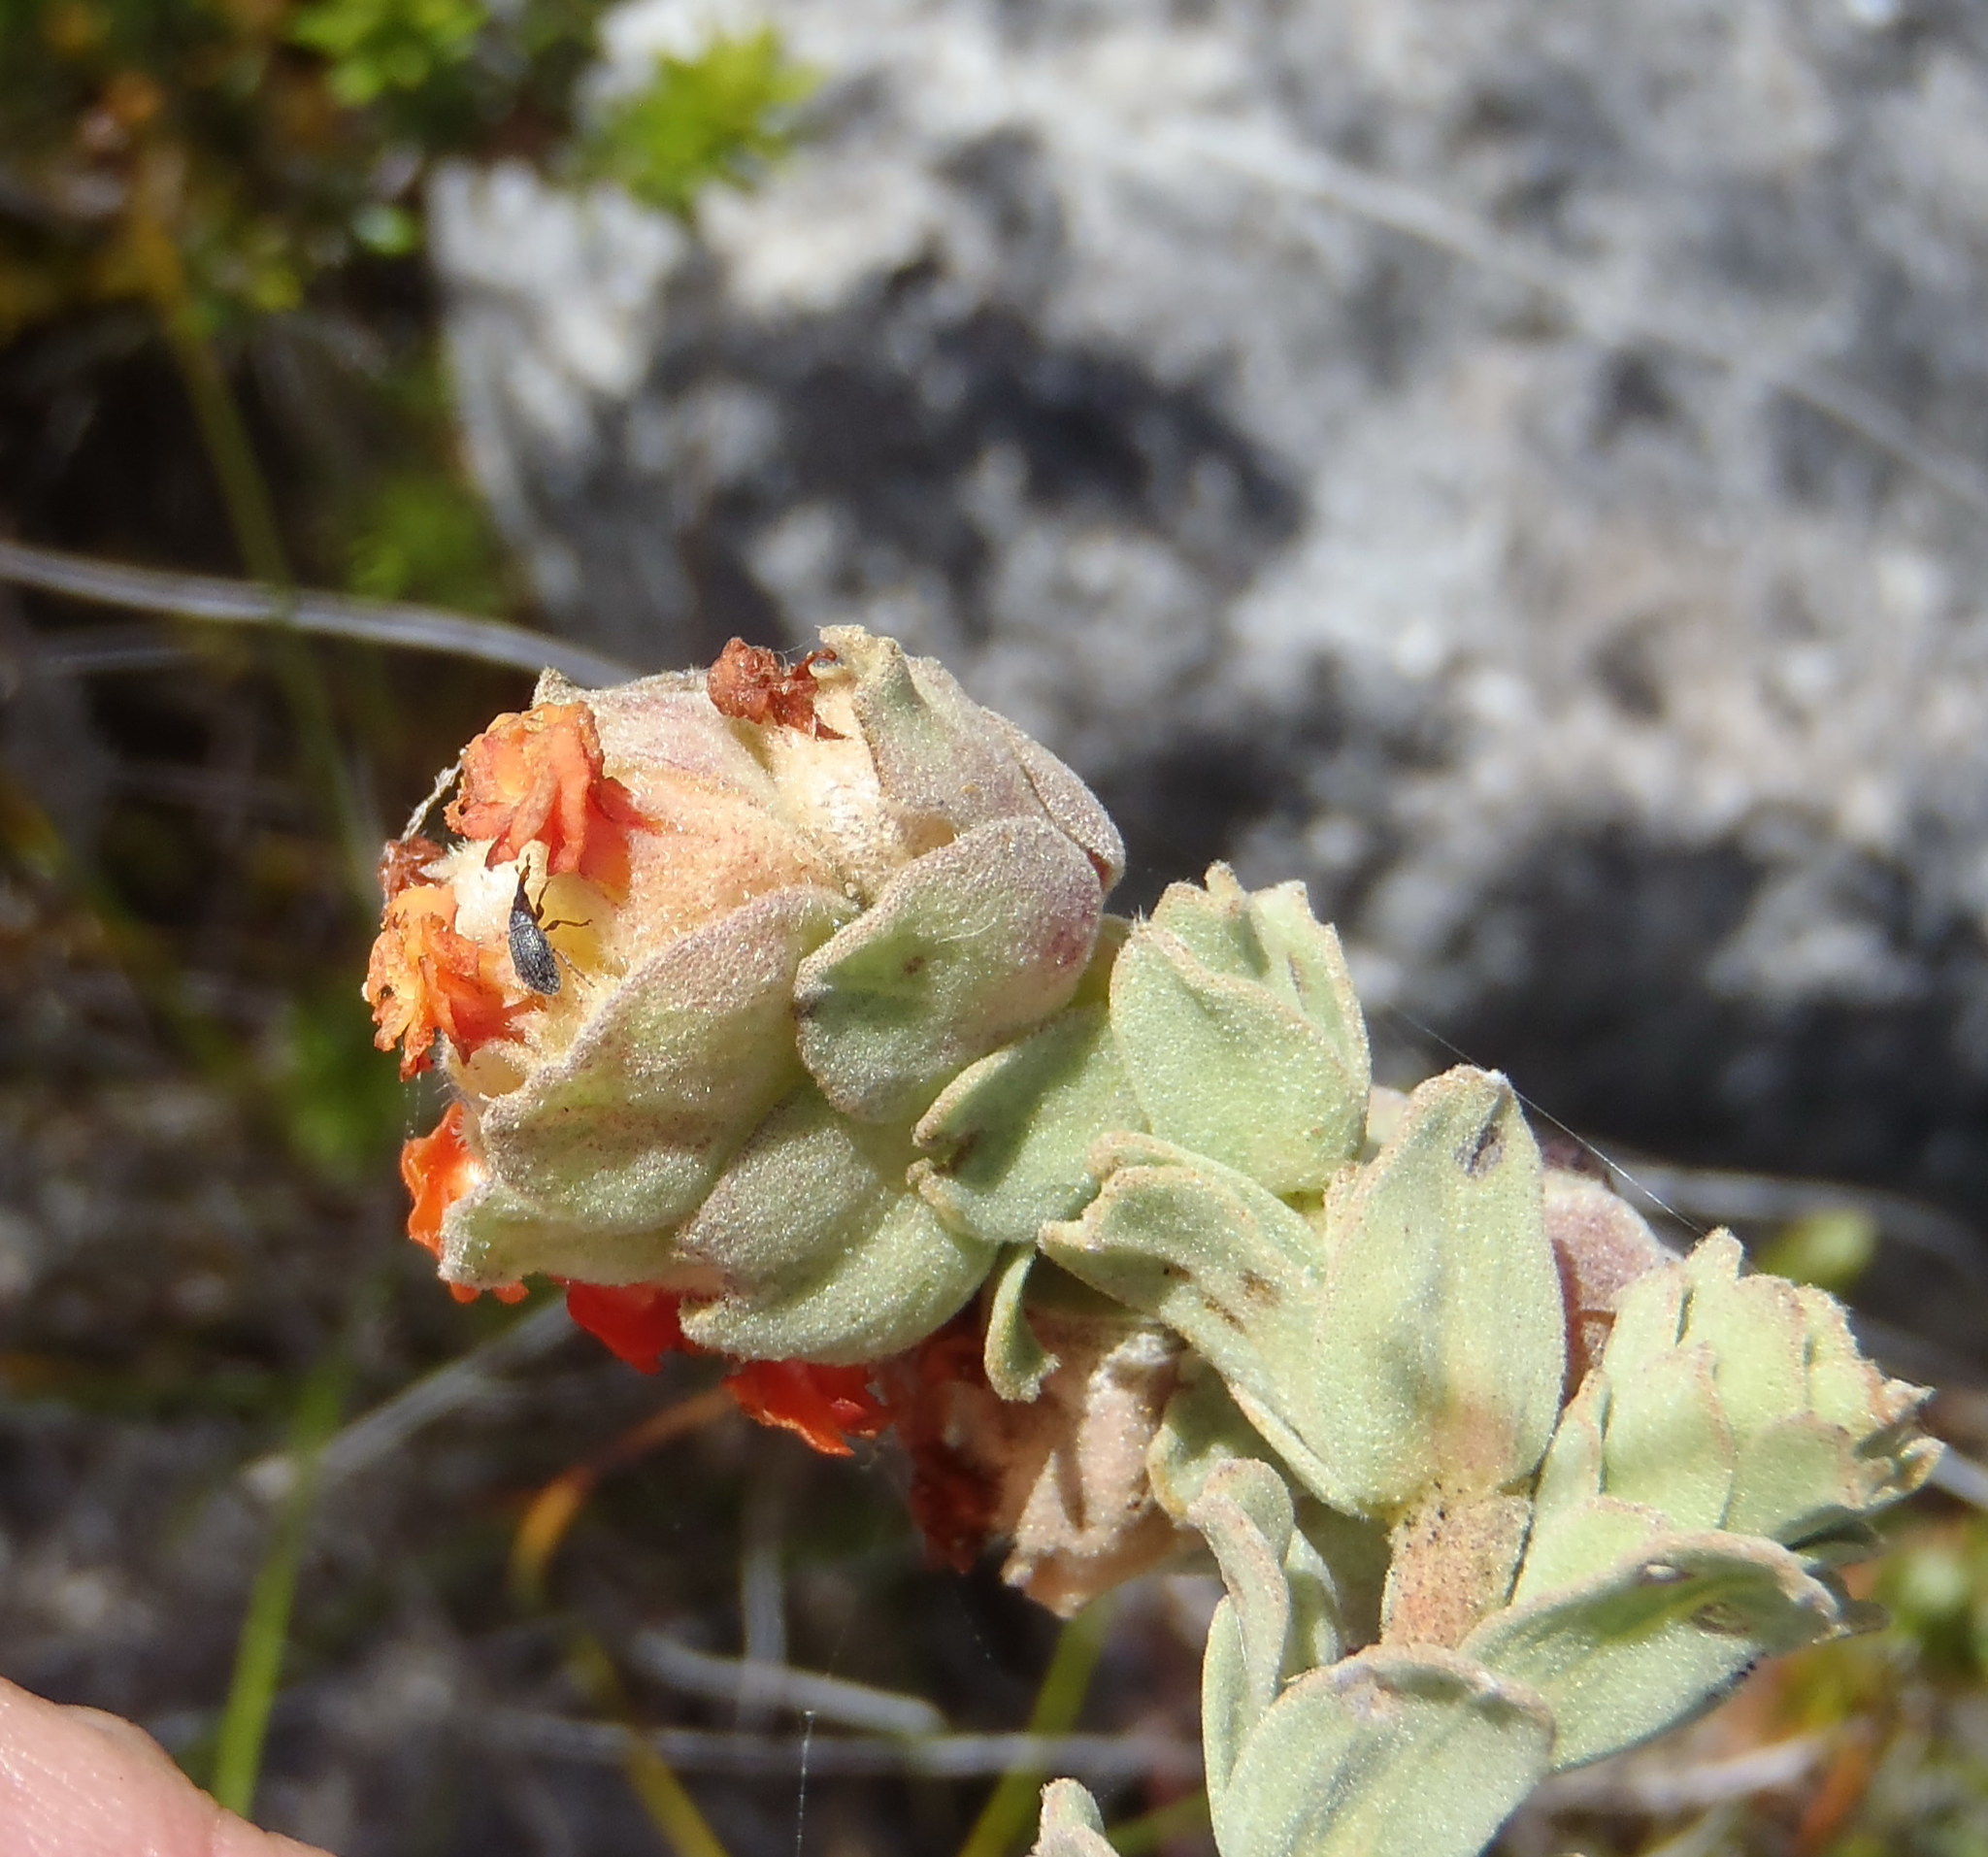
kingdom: Plantae
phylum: Tracheophyta
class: Magnoliopsida
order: Malvales
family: Malvaceae
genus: Hermannia
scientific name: Hermannia trifoliata
